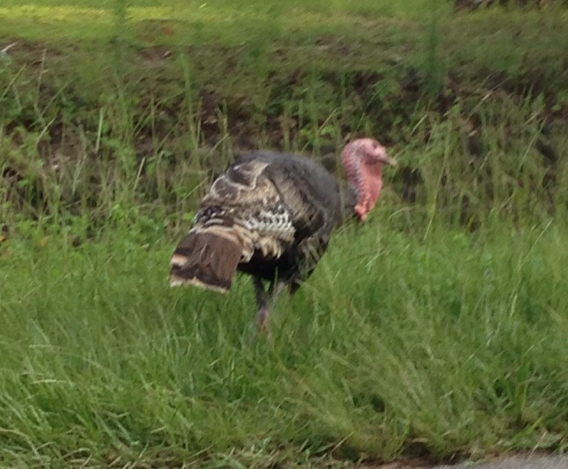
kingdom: Animalia
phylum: Chordata
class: Aves
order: Galliformes
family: Phasianidae
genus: Meleagris
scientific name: Meleagris gallopavo
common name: Wild turkey
